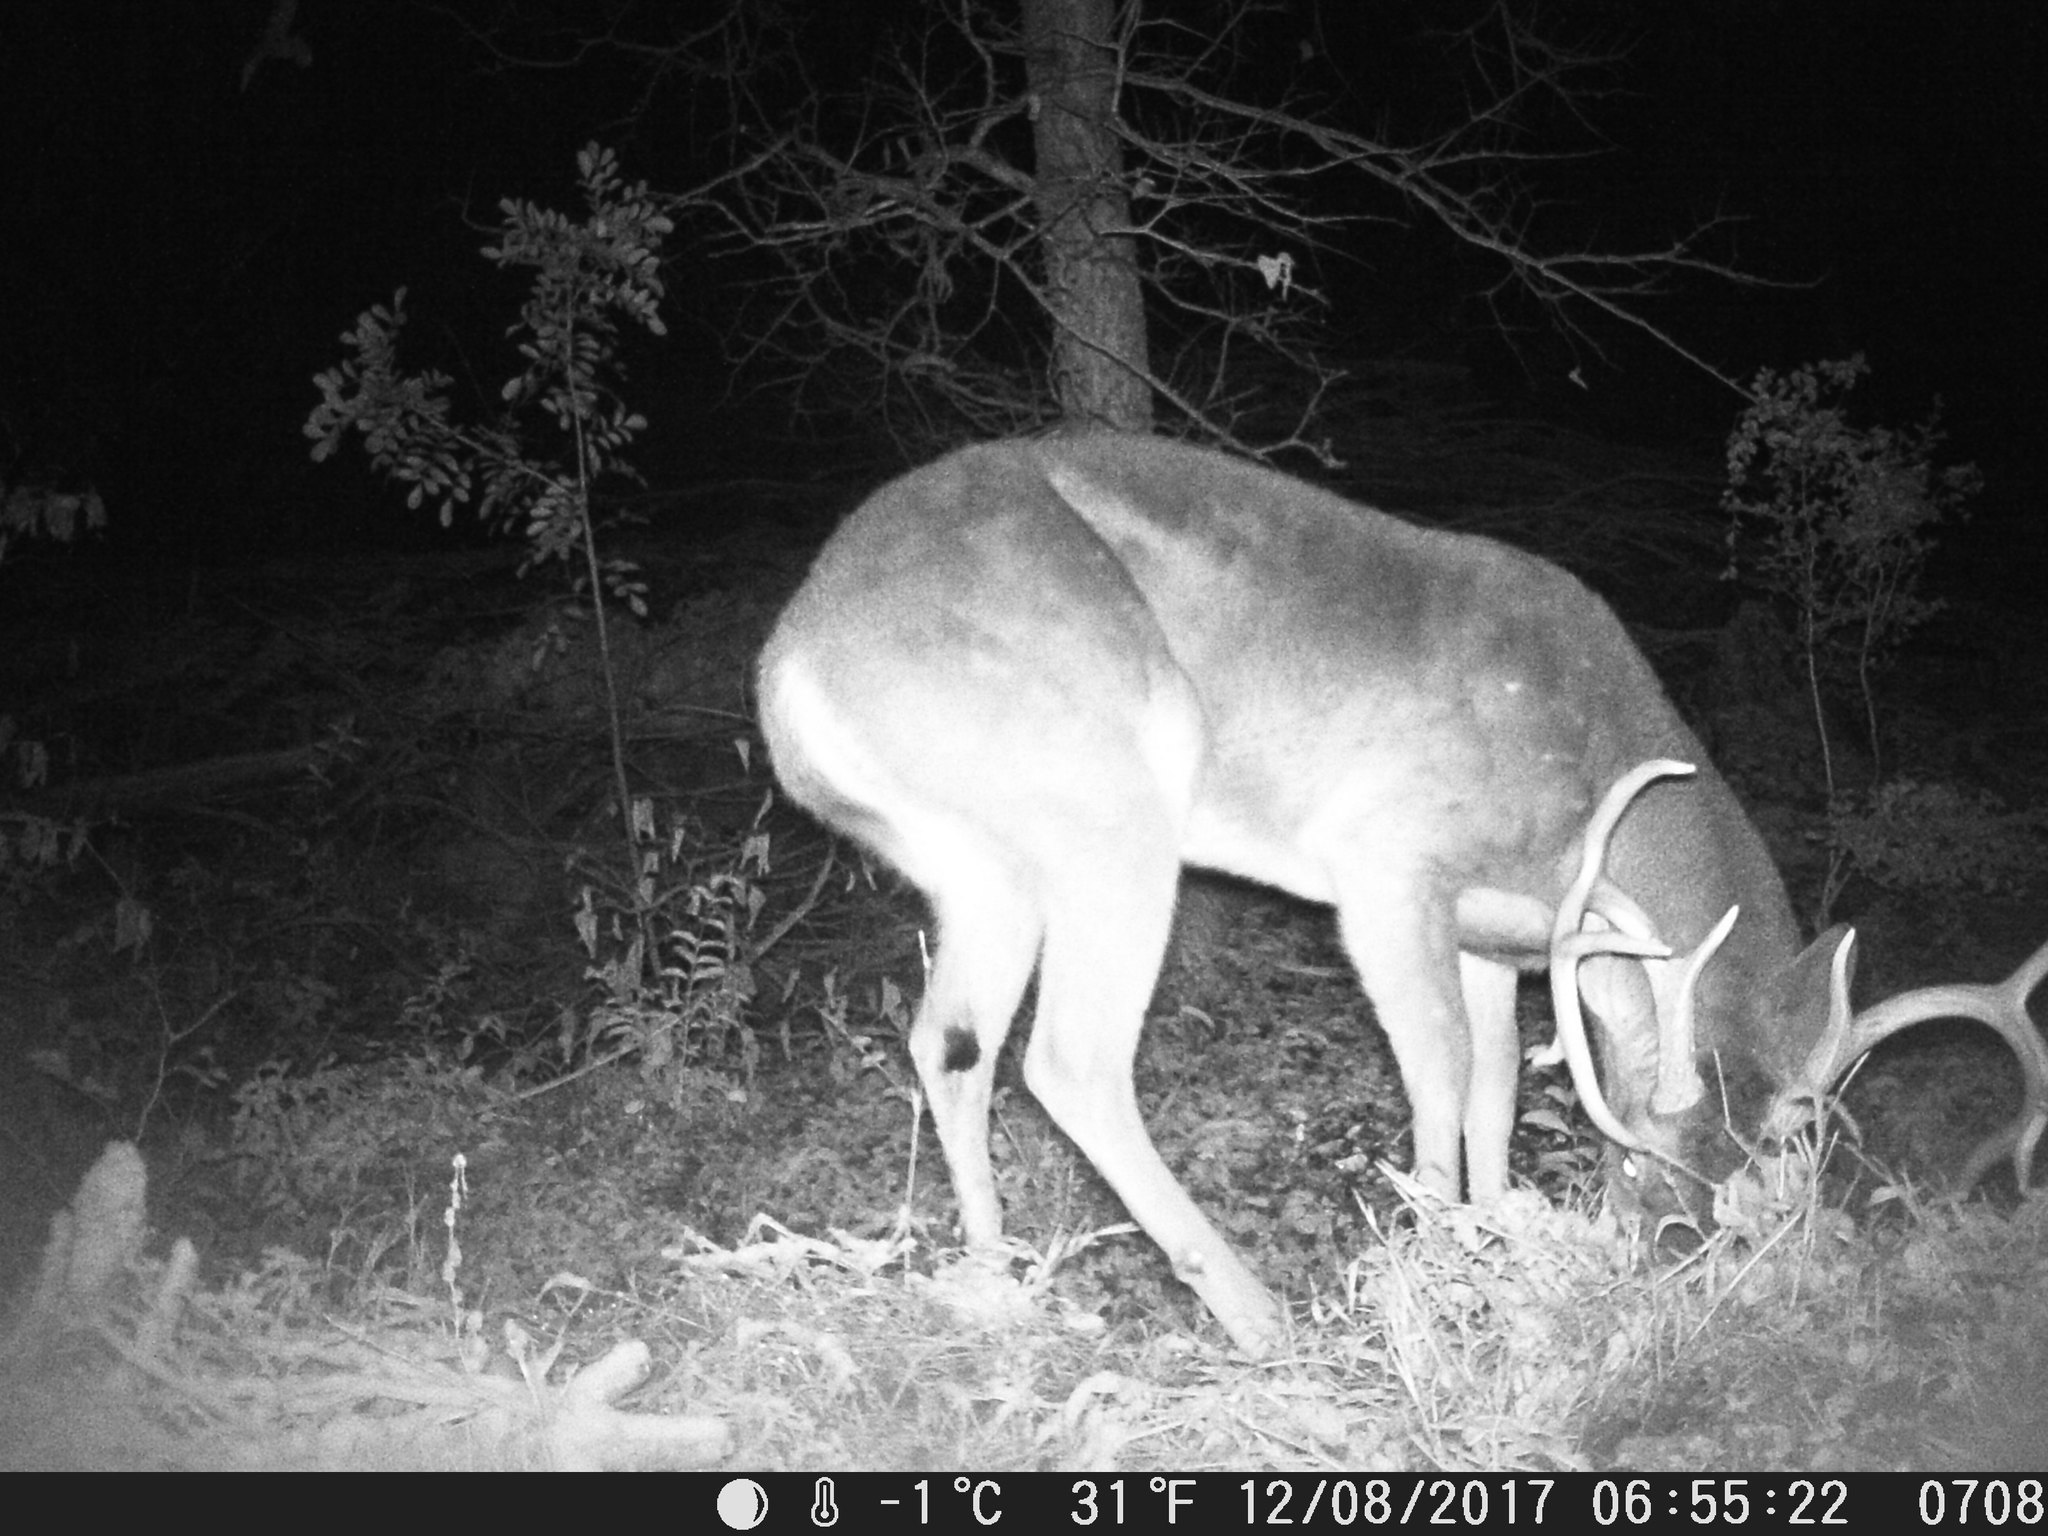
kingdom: Animalia
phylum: Chordata
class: Mammalia
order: Artiodactyla
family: Cervidae
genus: Odocoileus
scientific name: Odocoileus virginianus
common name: White-tailed deer
